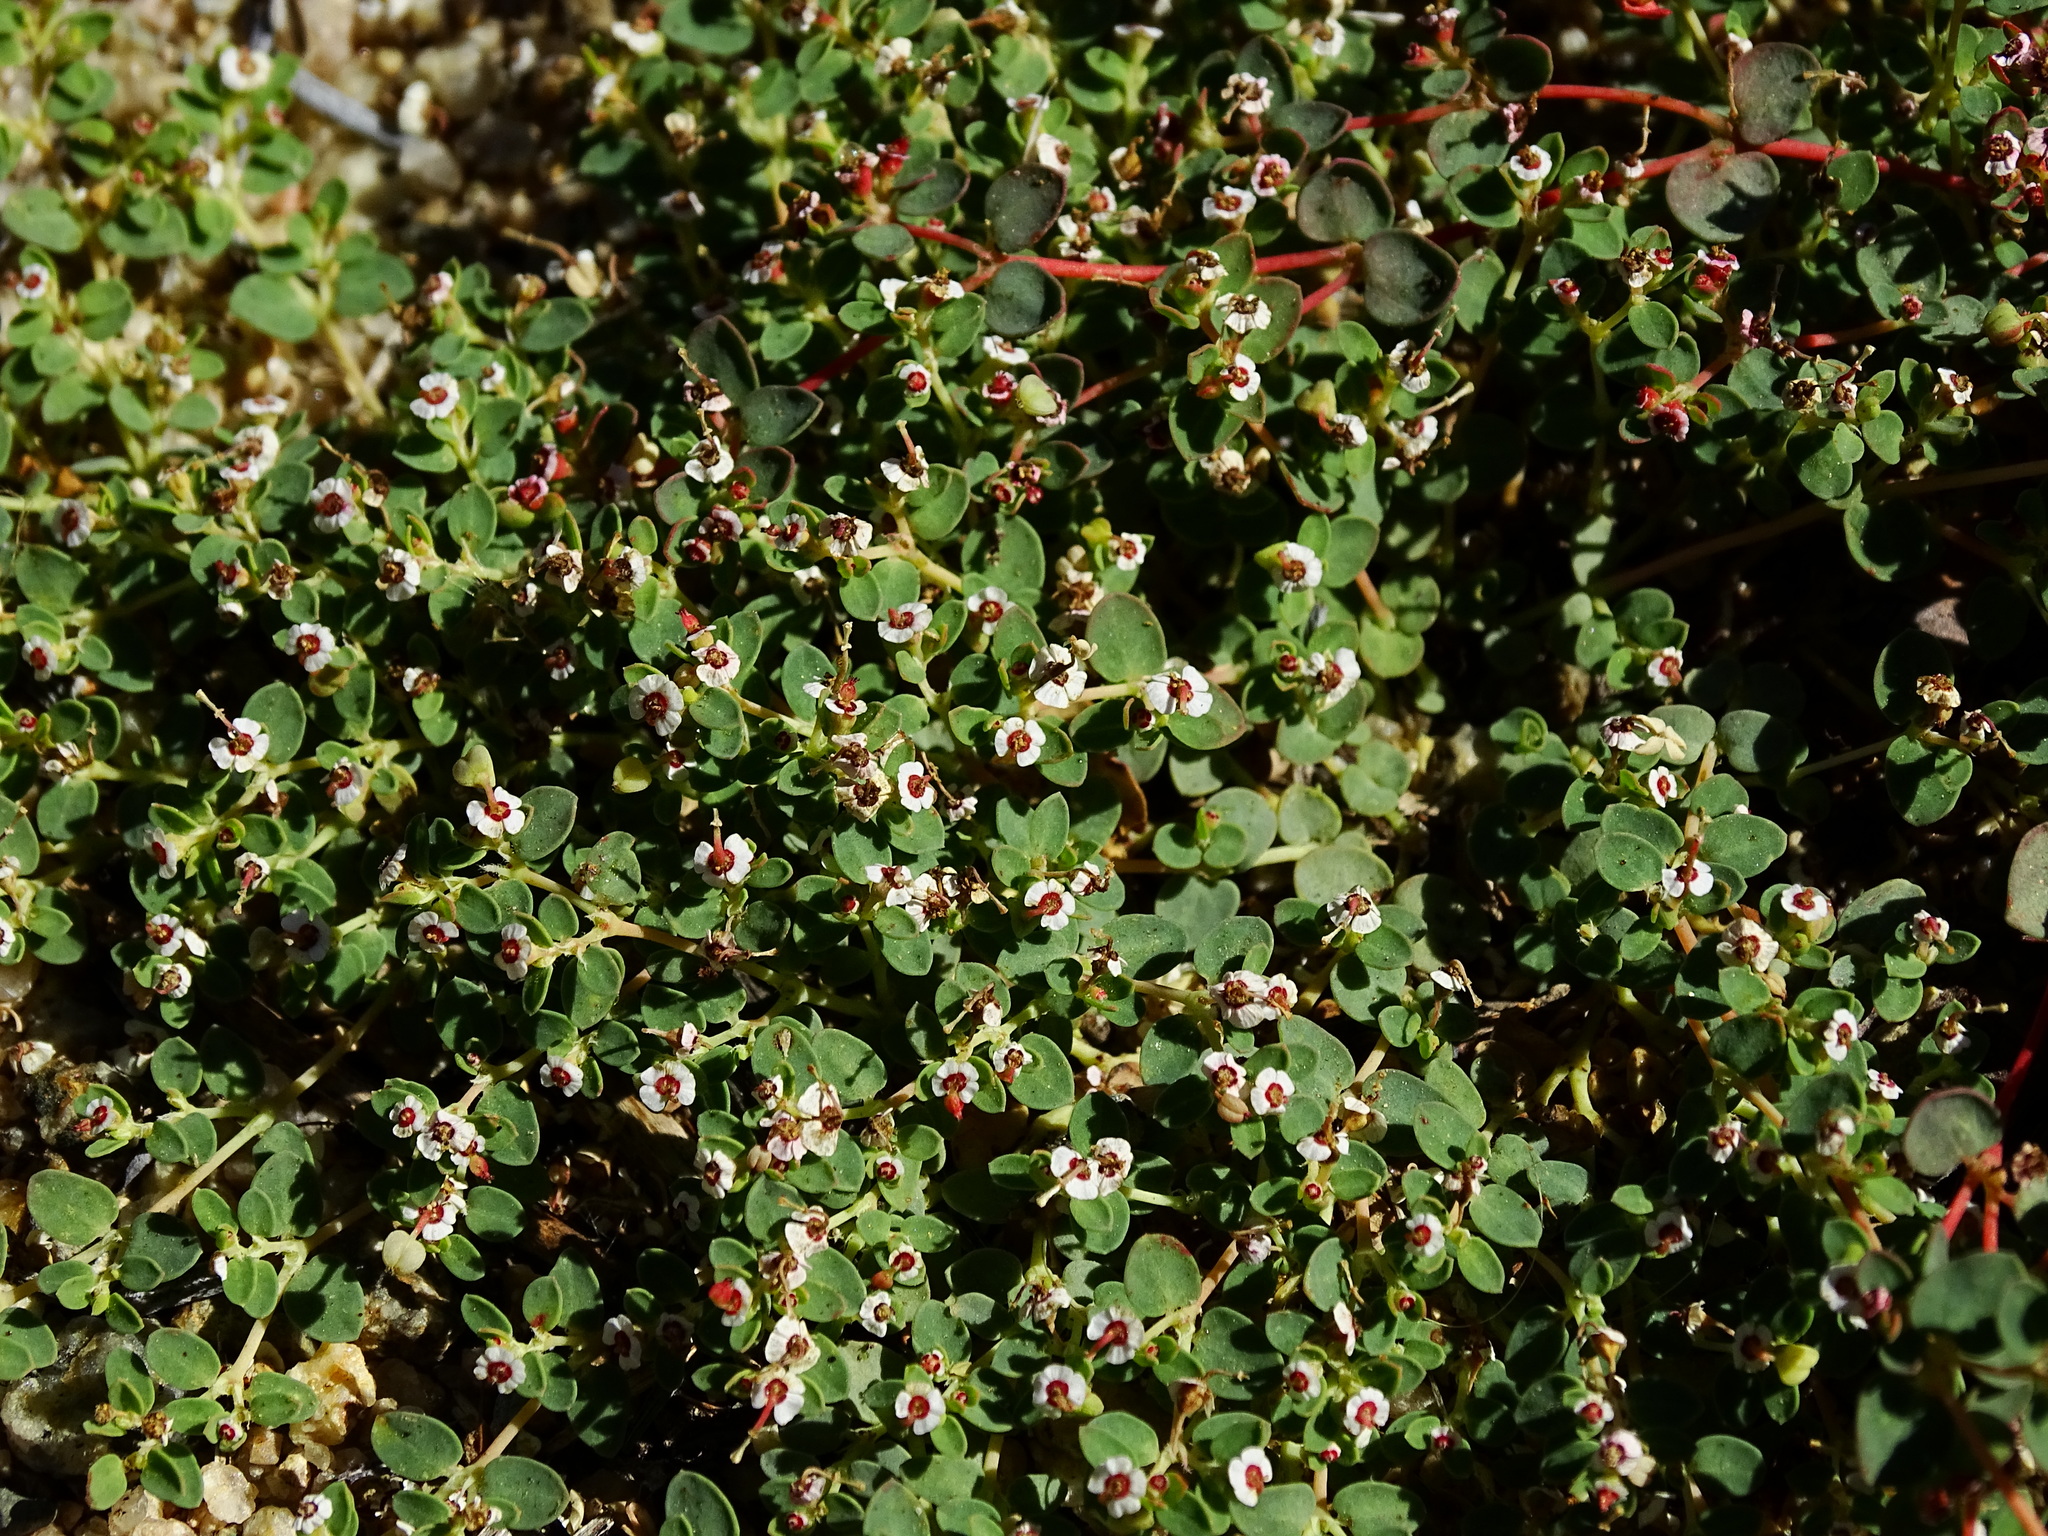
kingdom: Plantae
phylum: Tracheophyta
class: Magnoliopsida
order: Malpighiales
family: Euphorbiaceae
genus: Euphorbia
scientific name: Euphorbia polycarpa
